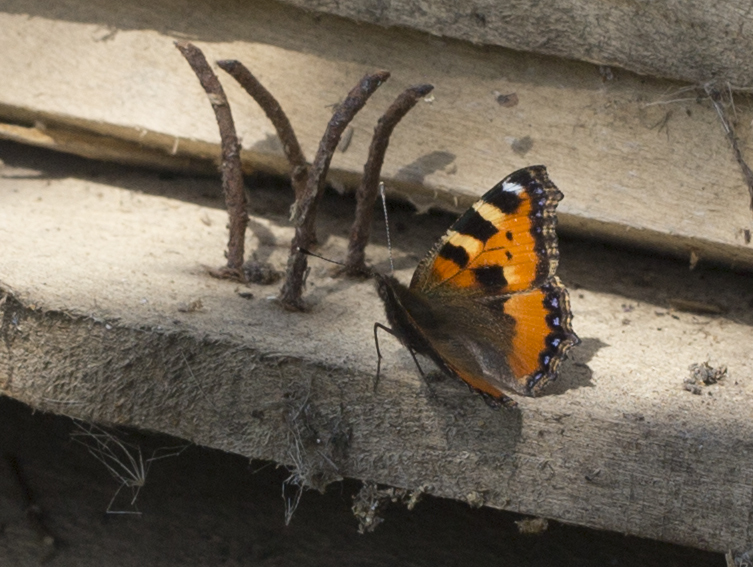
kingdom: Animalia
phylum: Arthropoda
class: Insecta
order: Lepidoptera
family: Nymphalidae
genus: Aglais
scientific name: Aglais urticae
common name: Small tortoiseshell
